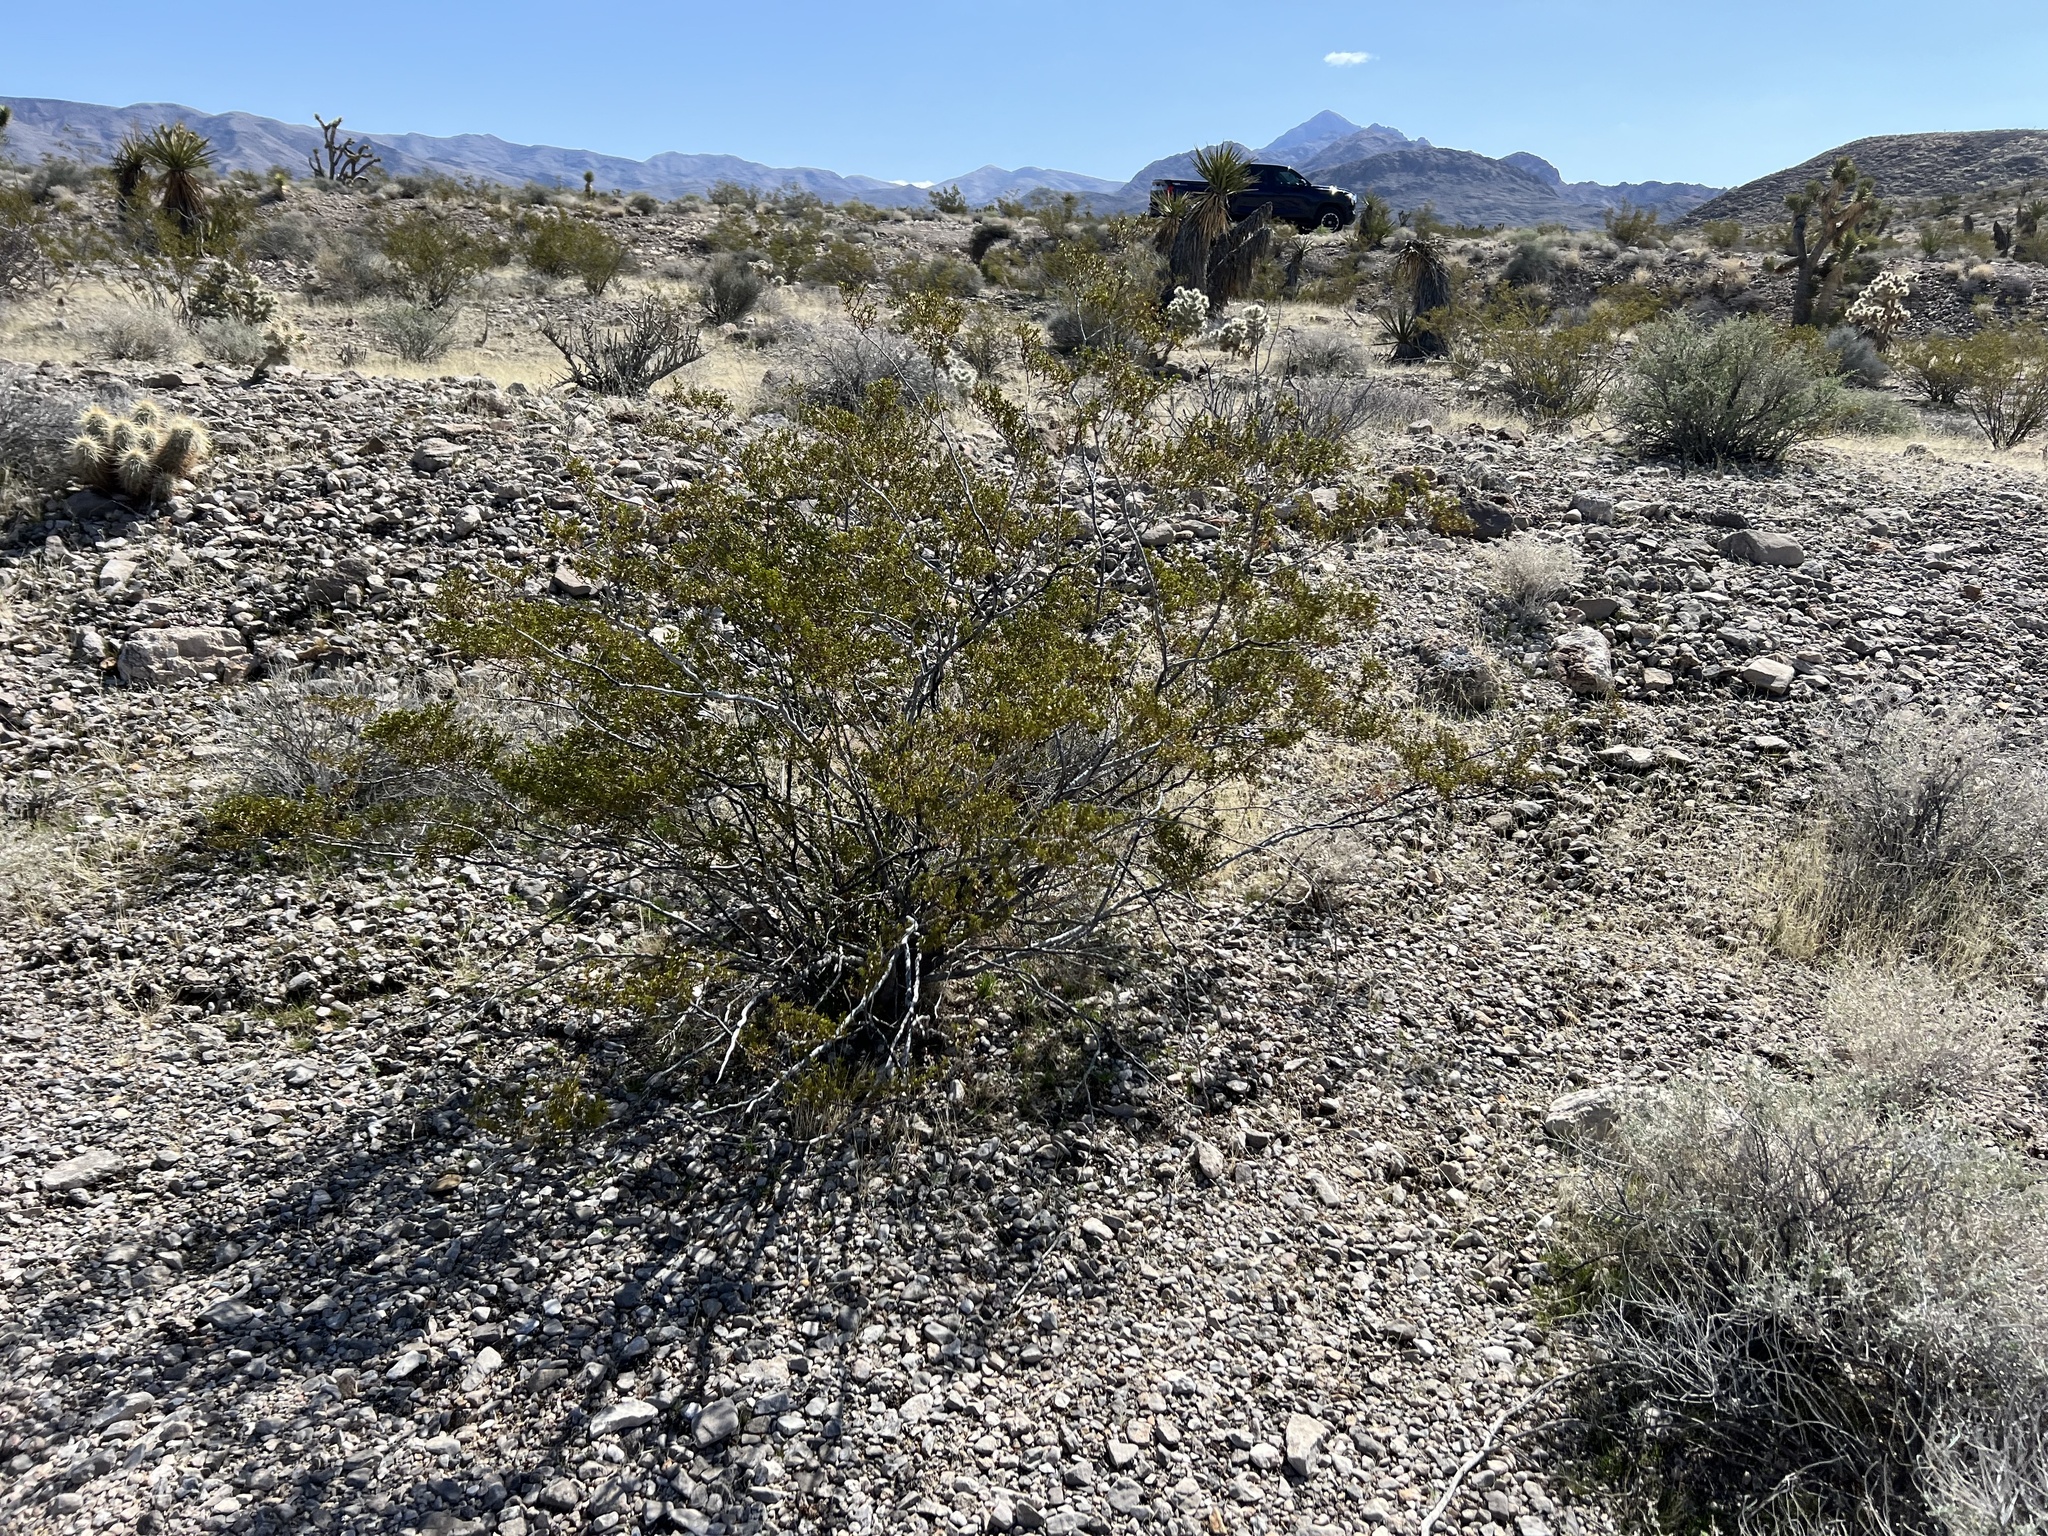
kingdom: Plantae
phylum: Tracheophyta
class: Magnoliopsida
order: Zygophyllales
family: Zygophyllaceae
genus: Larrea
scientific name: Larrea tridentata
